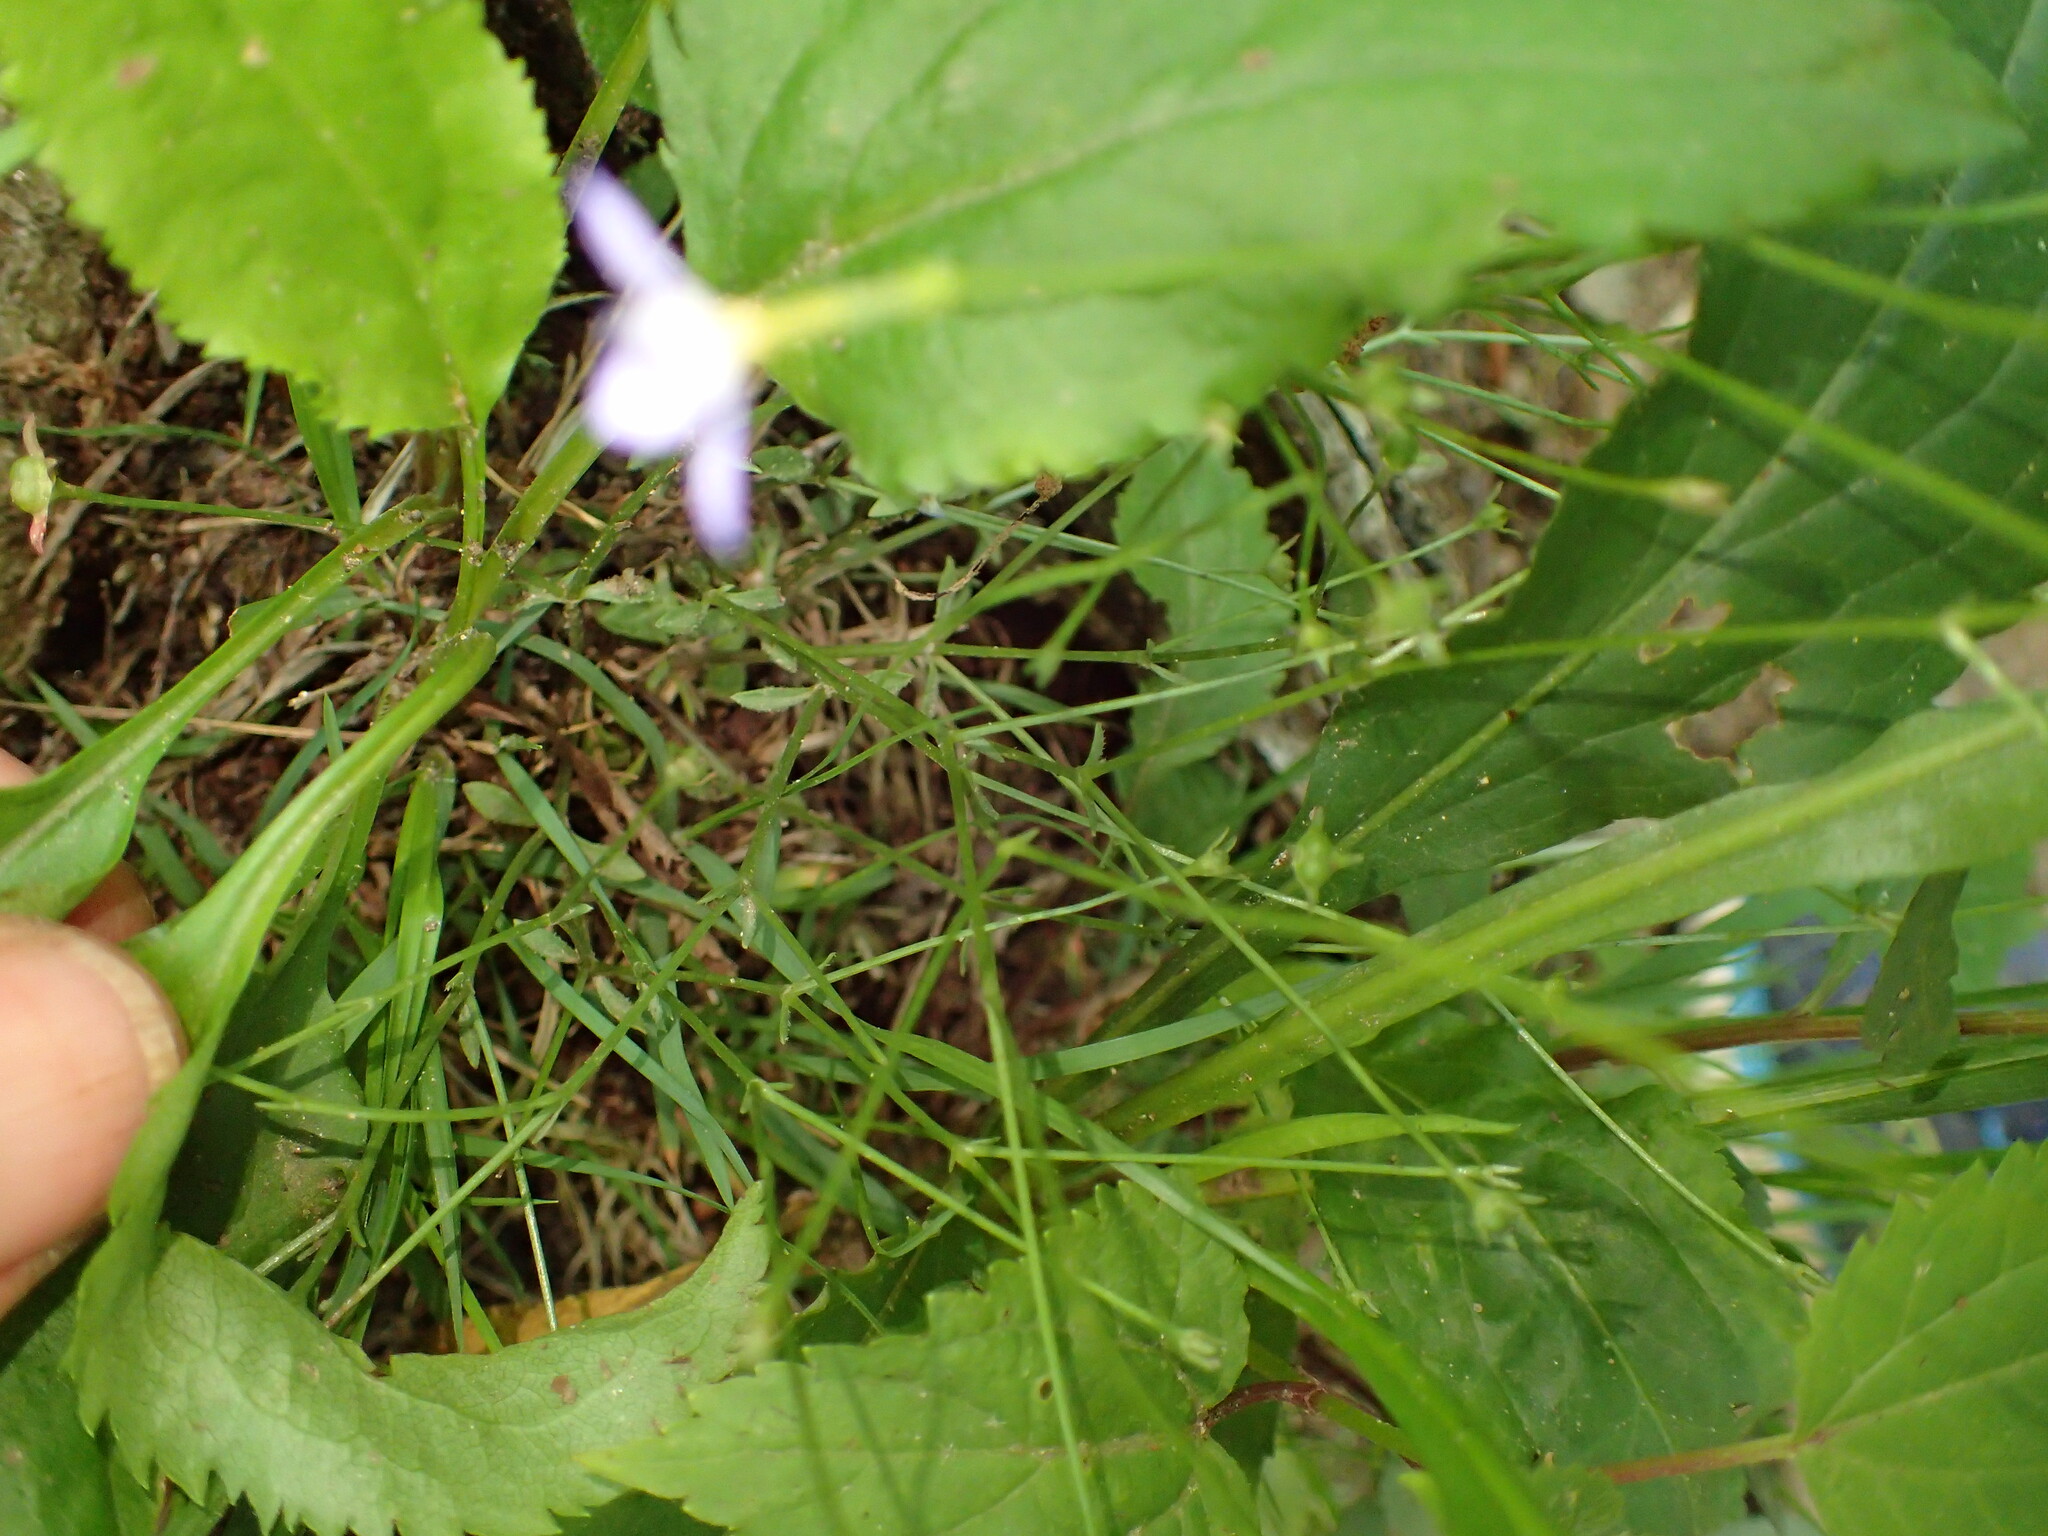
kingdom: Plantae
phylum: Tracheophyta
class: Magnoliopsida
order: Gentianales
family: Rubiaceae
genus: Houstonia
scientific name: Houstonia caerulea
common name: Bluets
